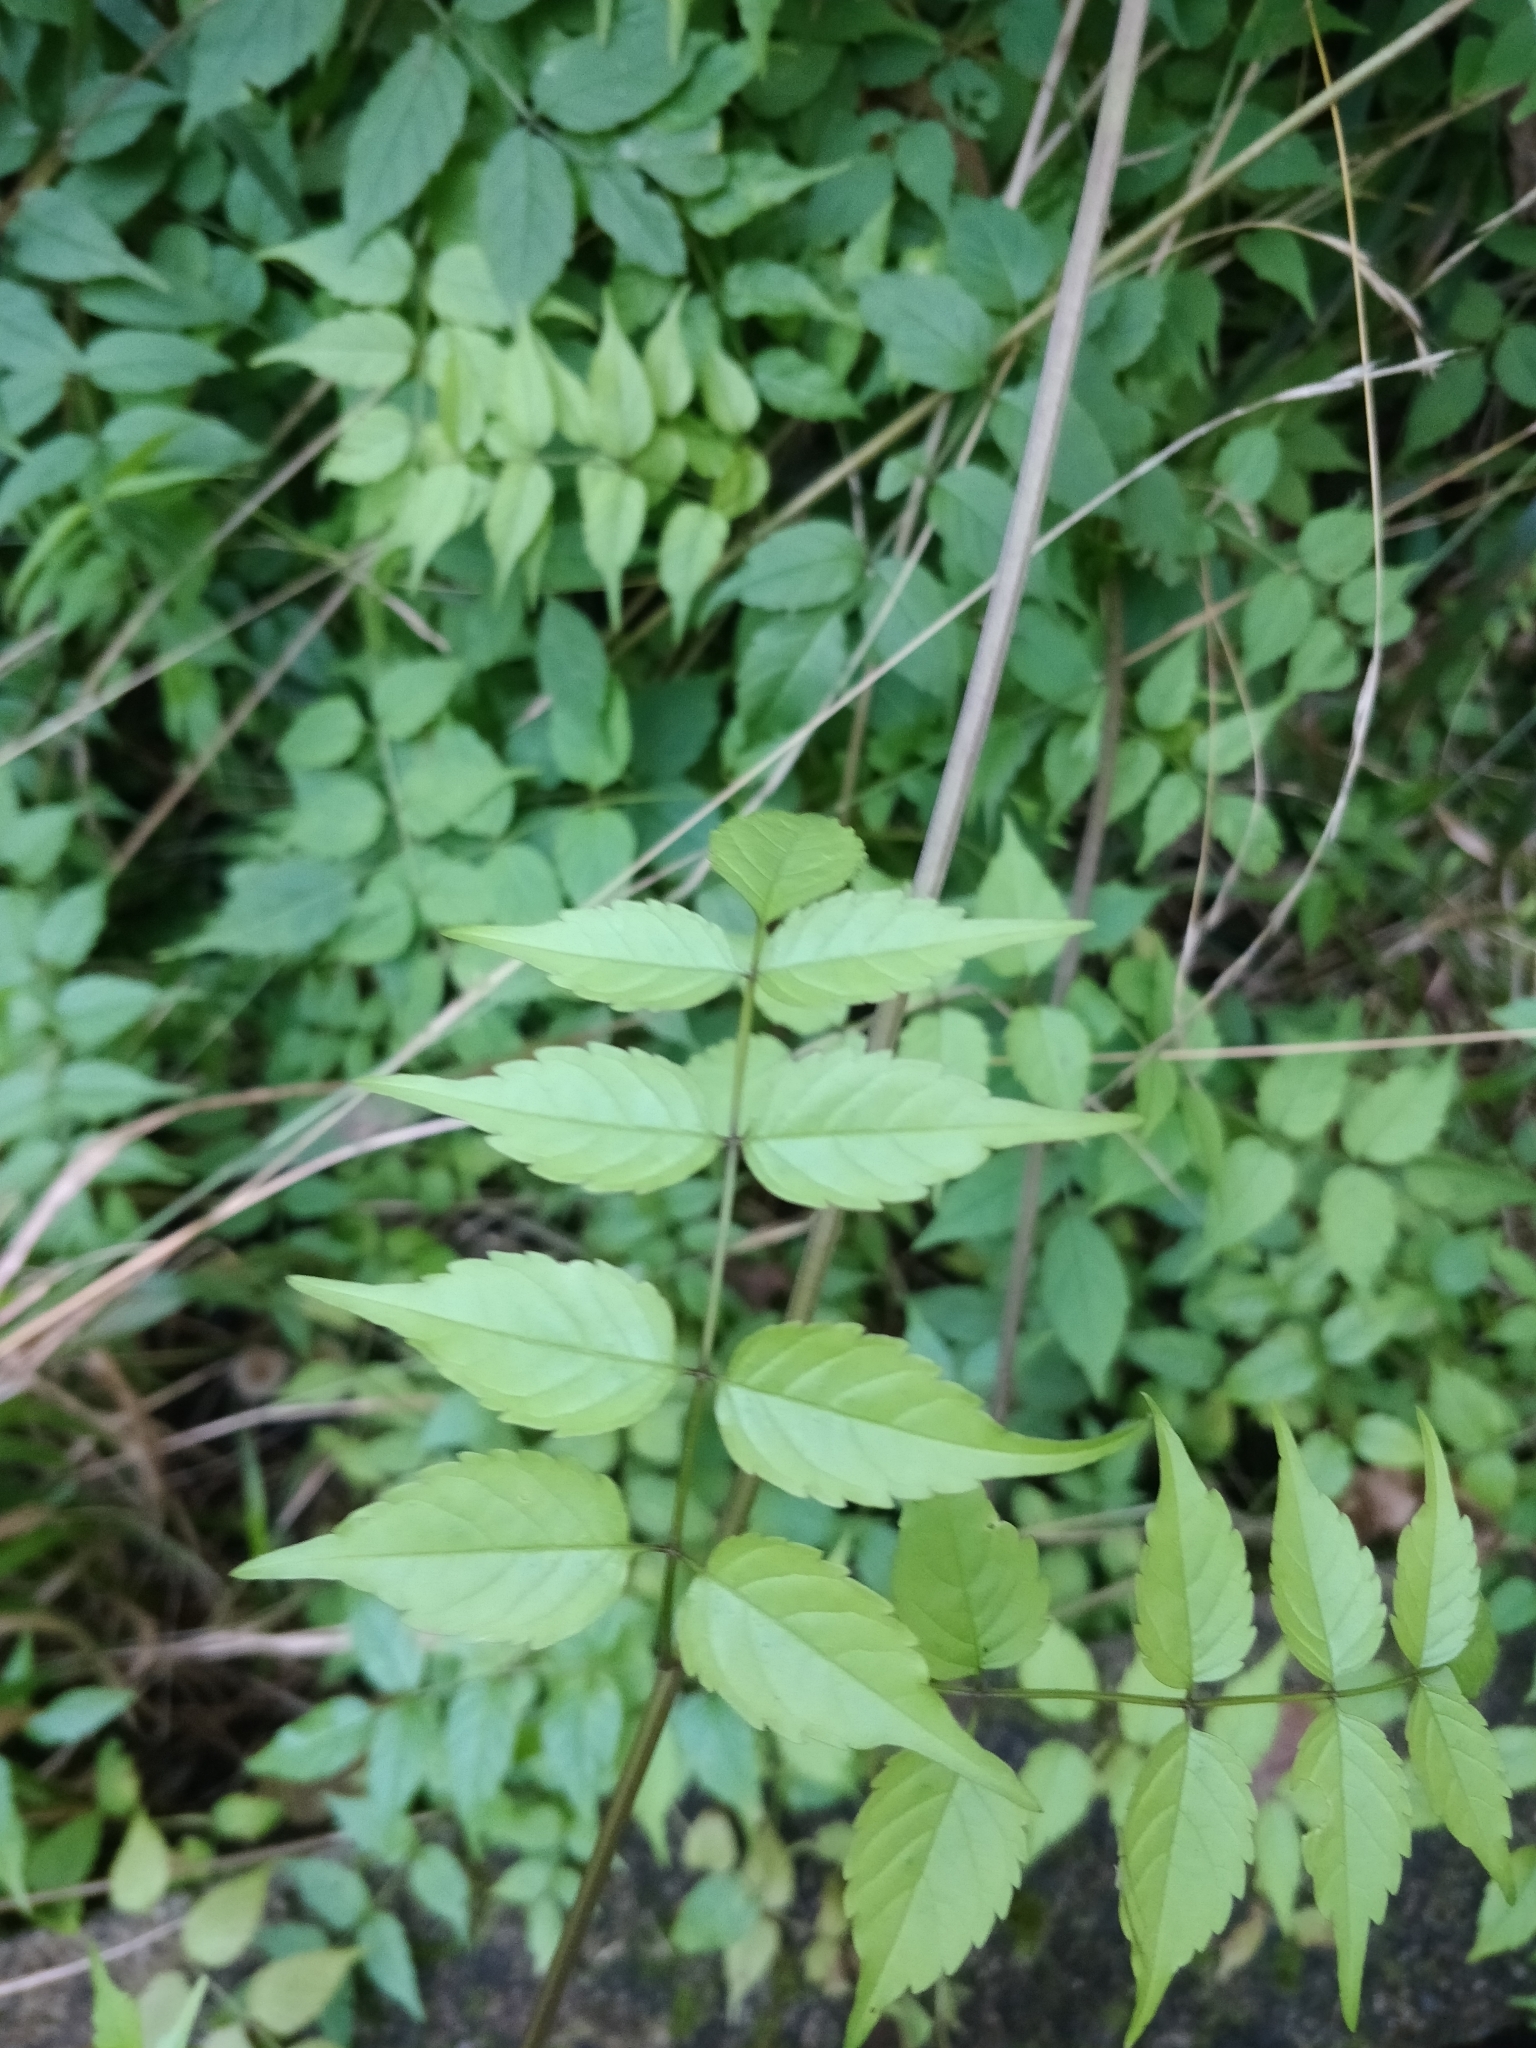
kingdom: Plantae
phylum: Tracheophyta
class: Magnoliopsida
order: Lamiales
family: Bignoniaceae
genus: Podranea
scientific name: Podranea ricasoliana
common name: Zimbabwe creeper
